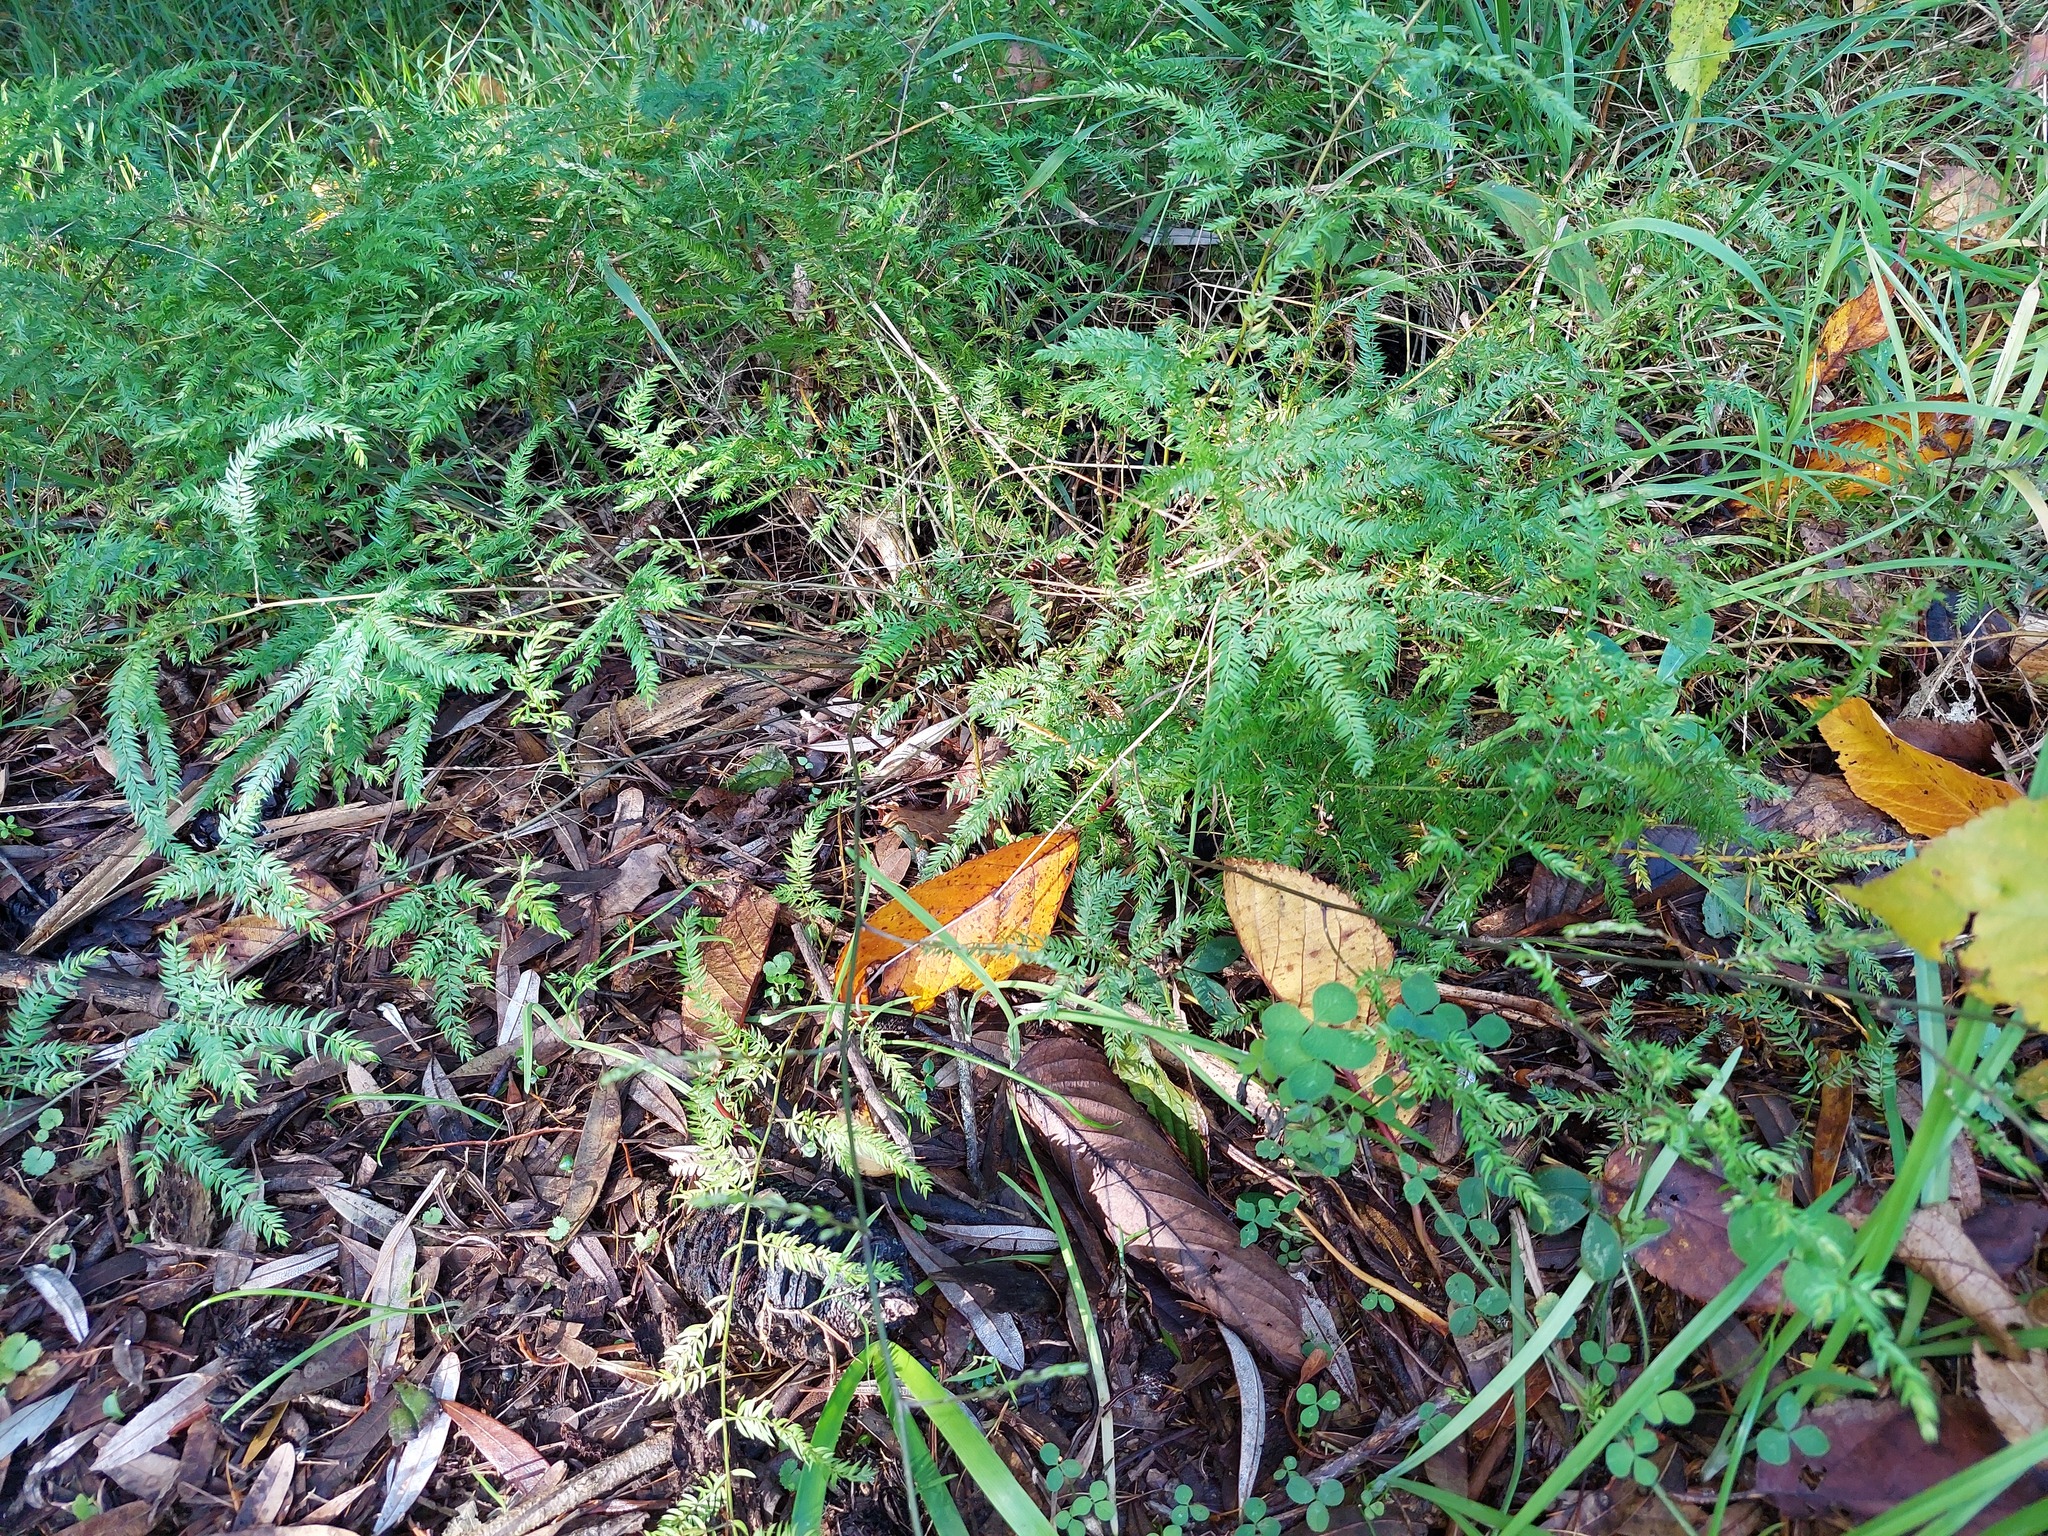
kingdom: Plantae
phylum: Tracheophyta
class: Liliopsida
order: Asparagales
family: Asparagaceae
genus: Asparagus
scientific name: Asparagus scandens
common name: Asparagus-fern
